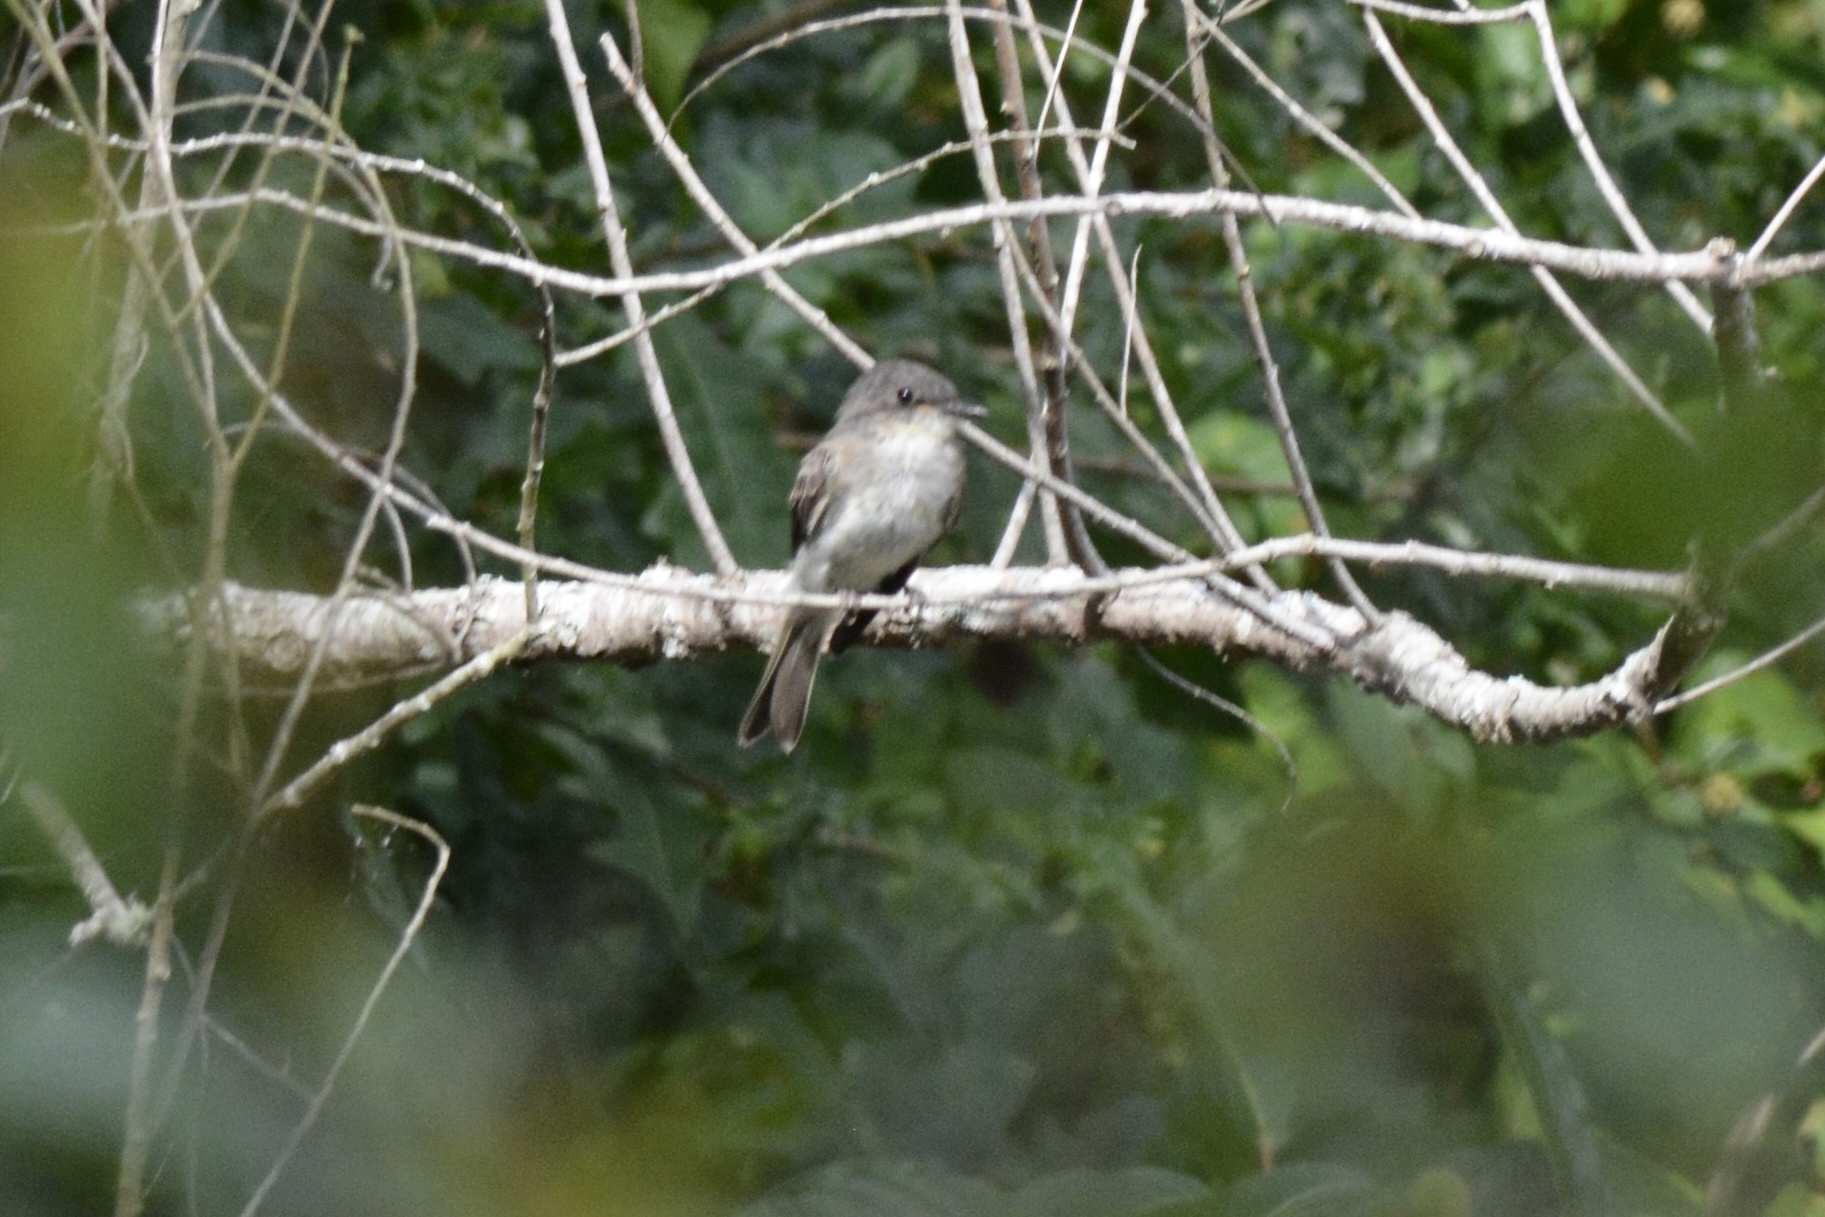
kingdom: Animalia
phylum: Chordata
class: Aves
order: Passeriformes
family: Tyrannidae
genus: Contopus
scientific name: Contopus virens
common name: Eastern wood-pewee
